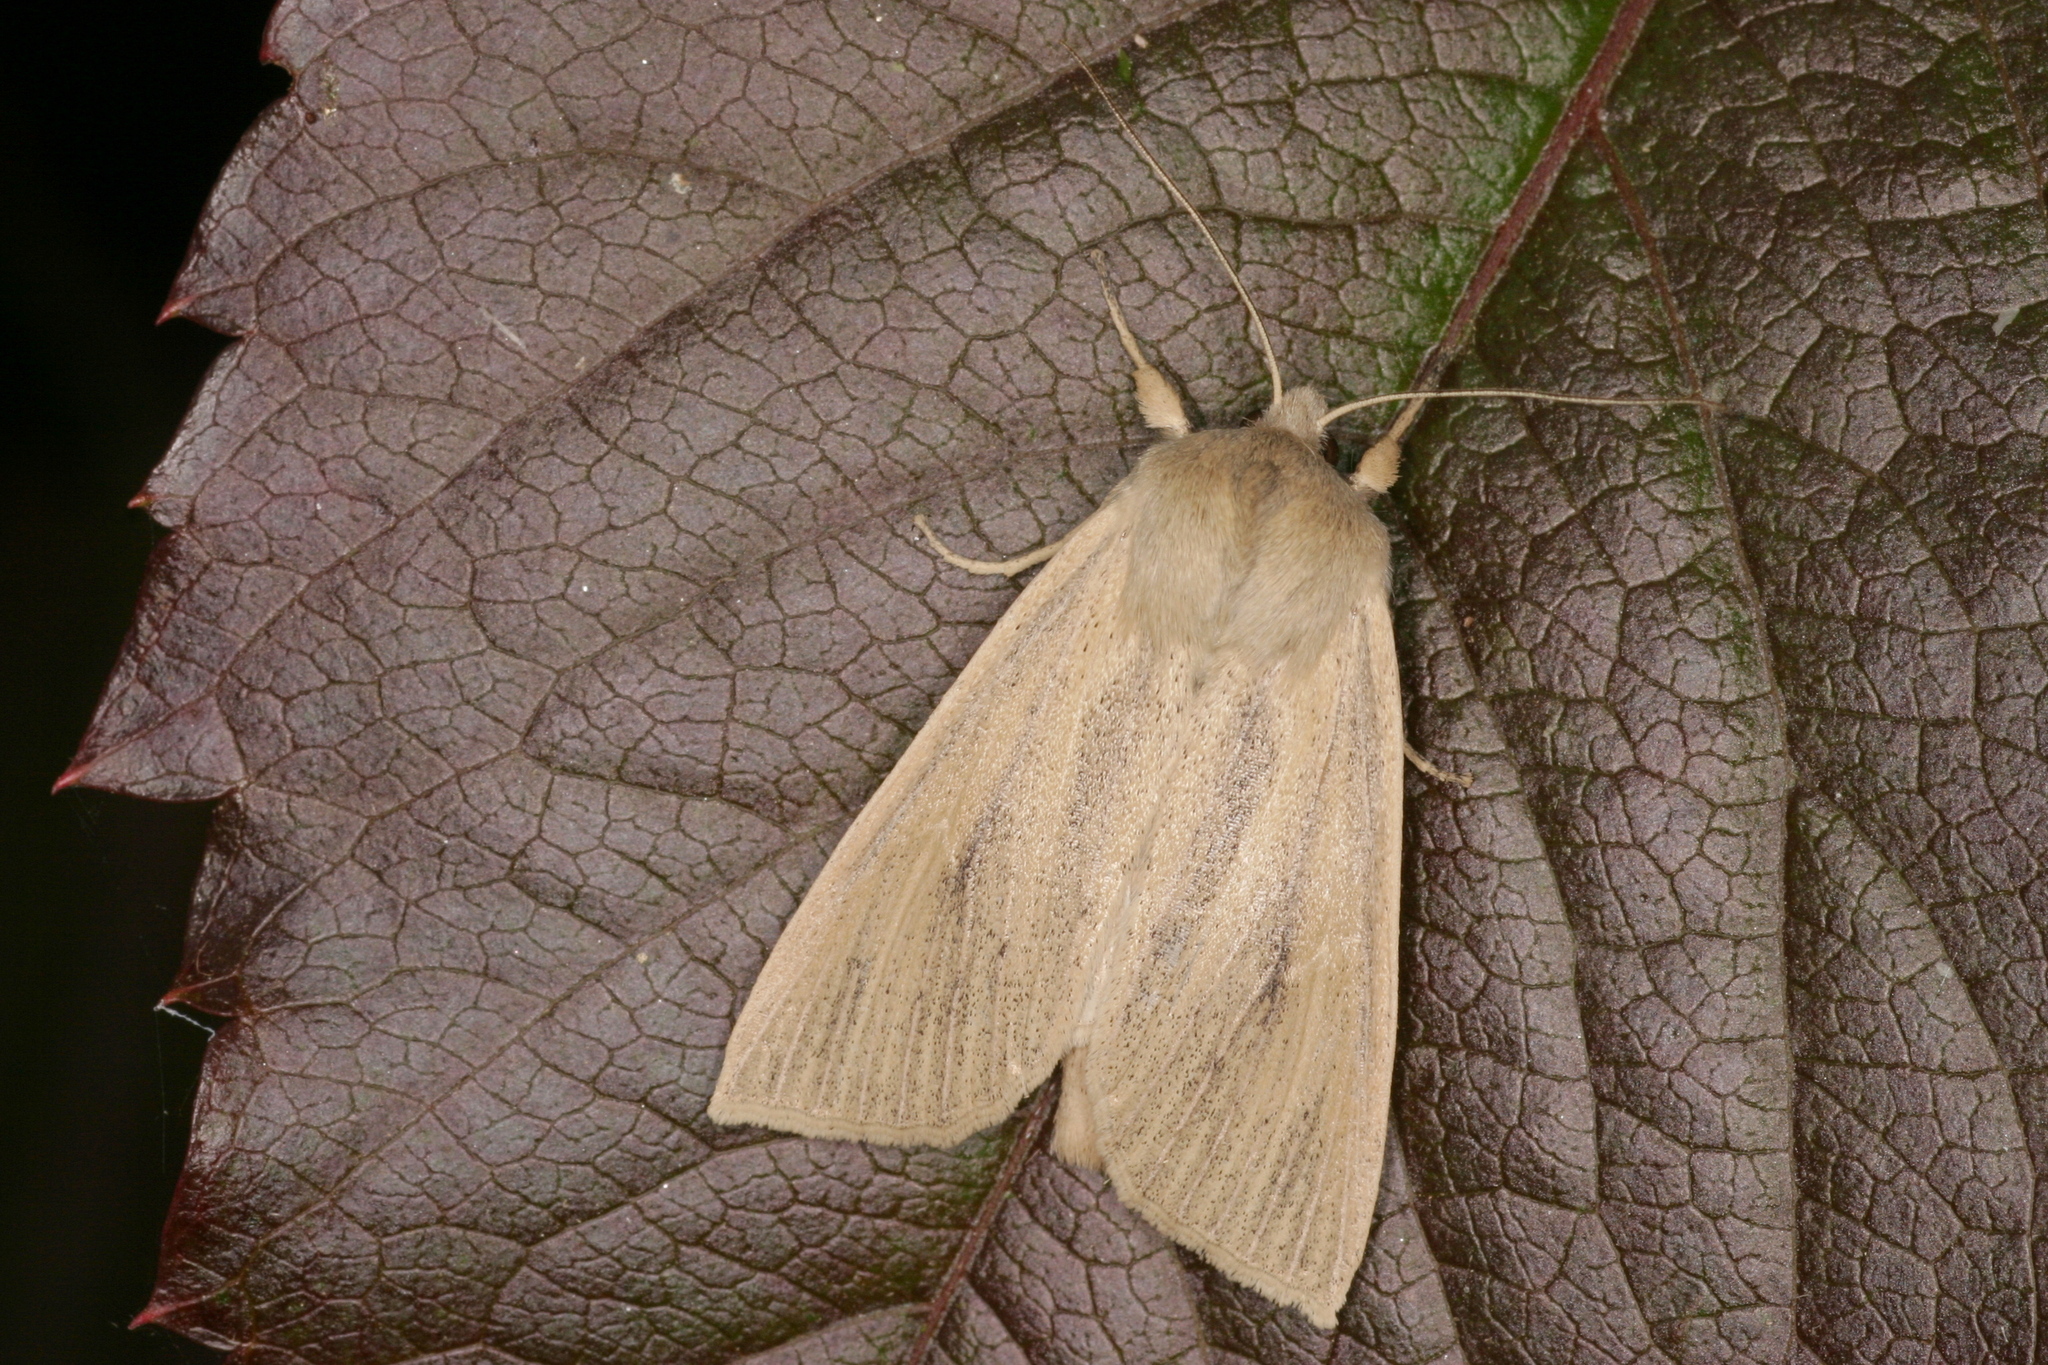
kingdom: Animalia
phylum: Arthropoda
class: Insecta
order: Lepidoptera
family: Noctuidae
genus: Rhizedra
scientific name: Rhizedra lutosa
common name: Large wainscot
